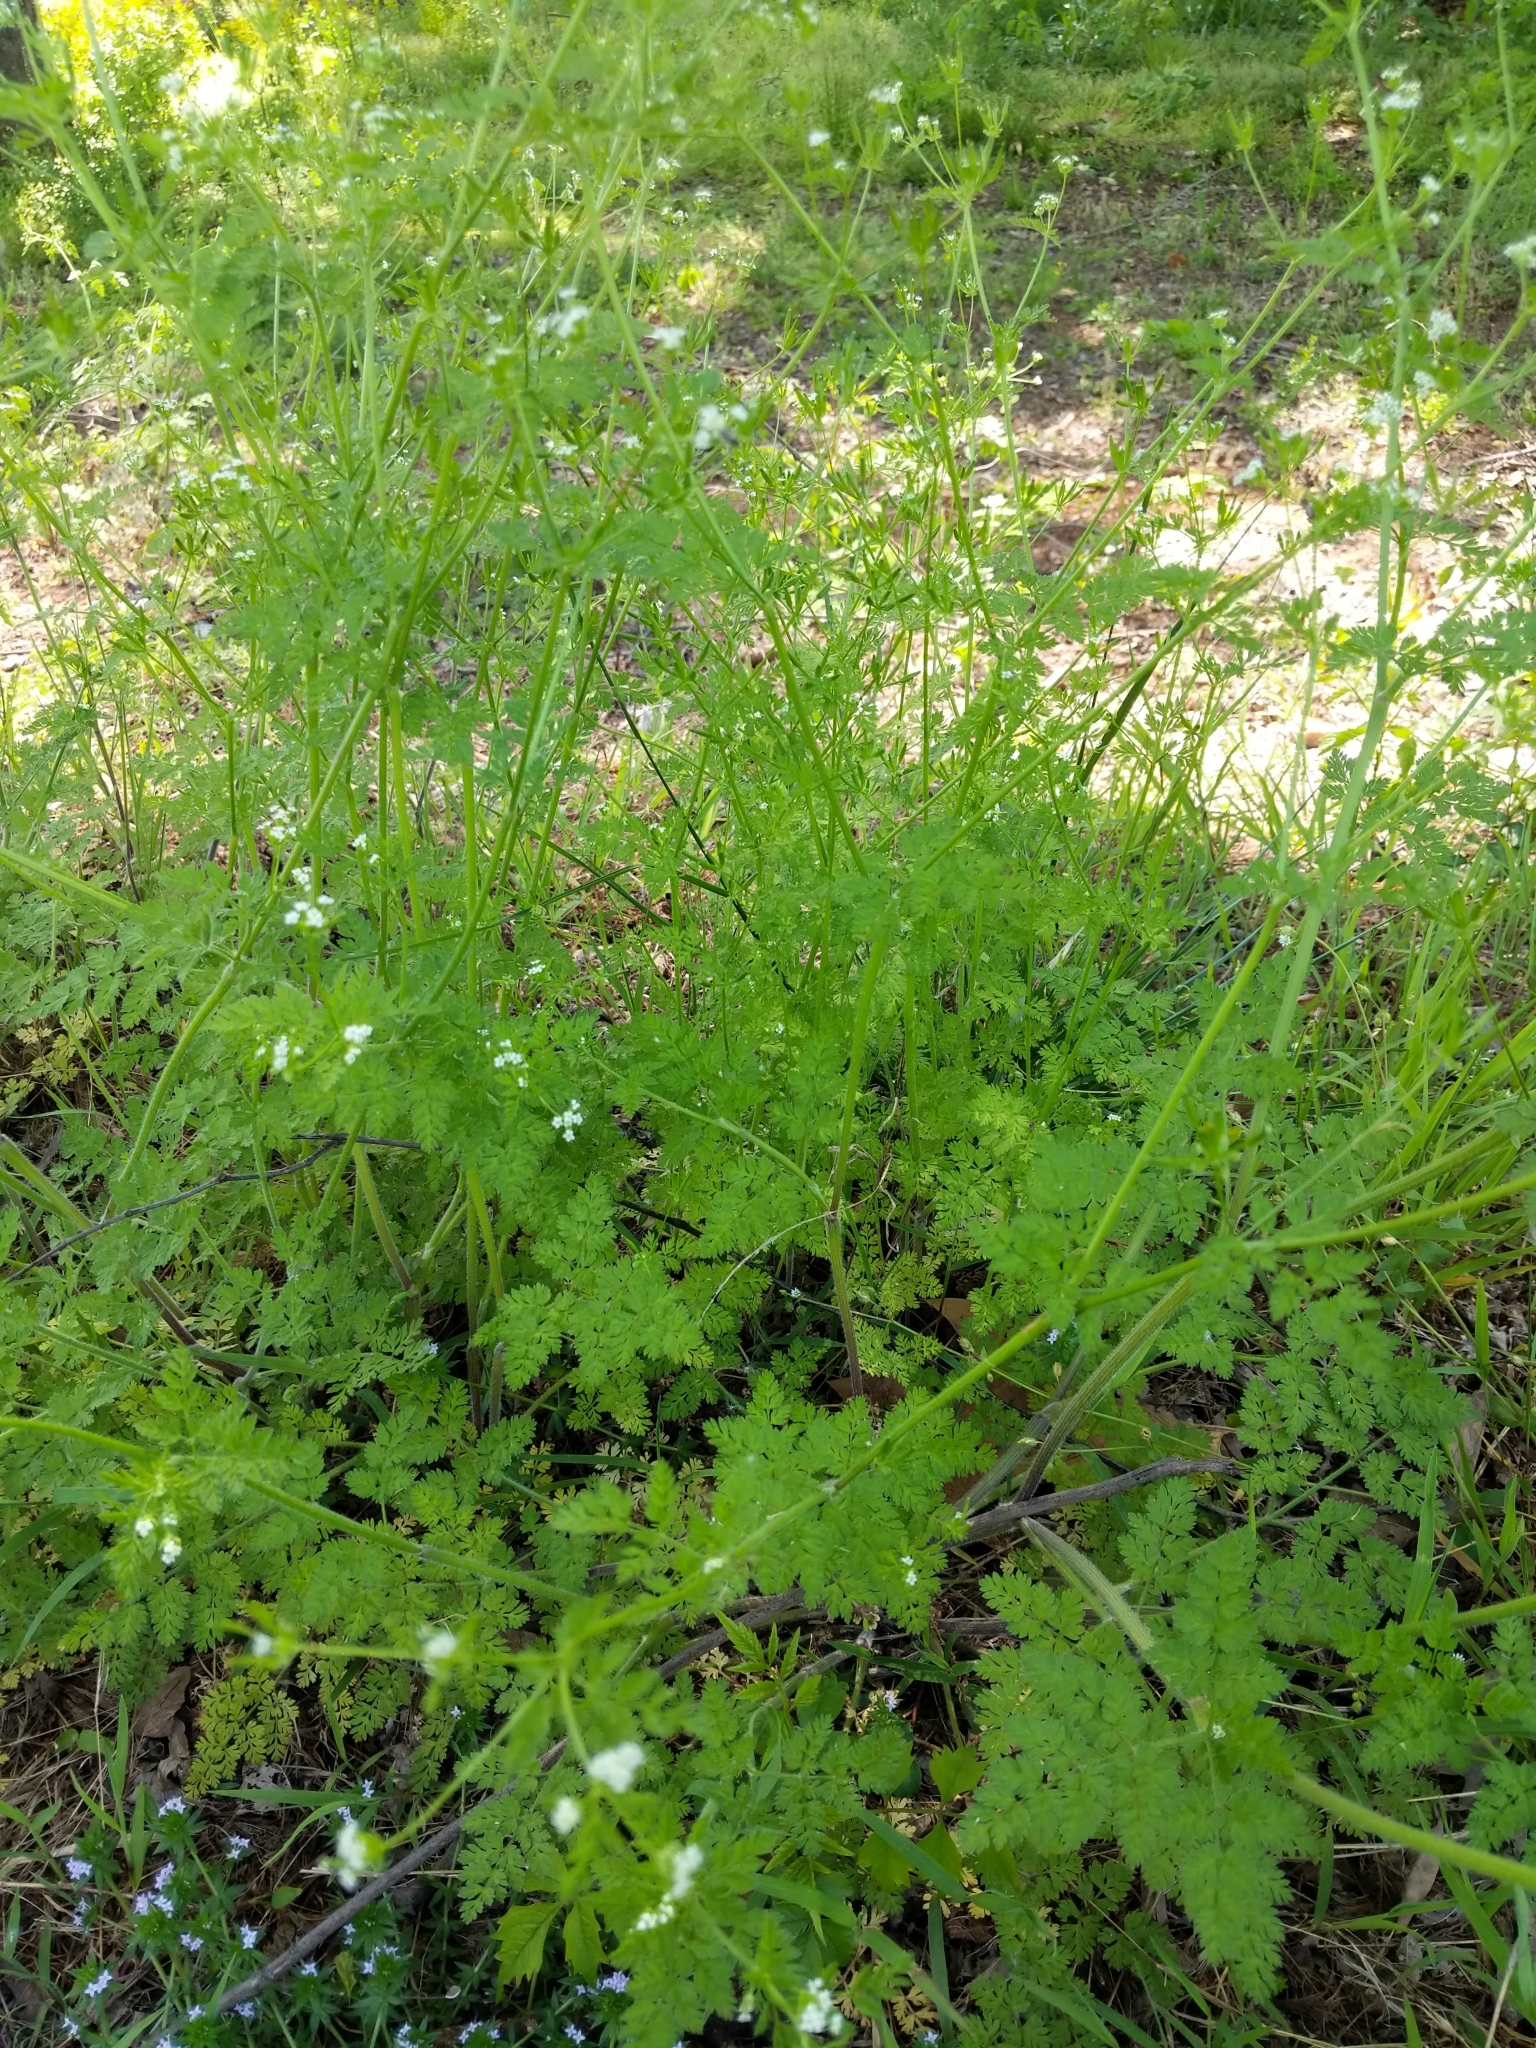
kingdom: Plantae
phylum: Tracheophyta
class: Magnoliopsida
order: Apiales
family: Apiaceae
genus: Chaerophyllum
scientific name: Chaerophyllum tainturieri
